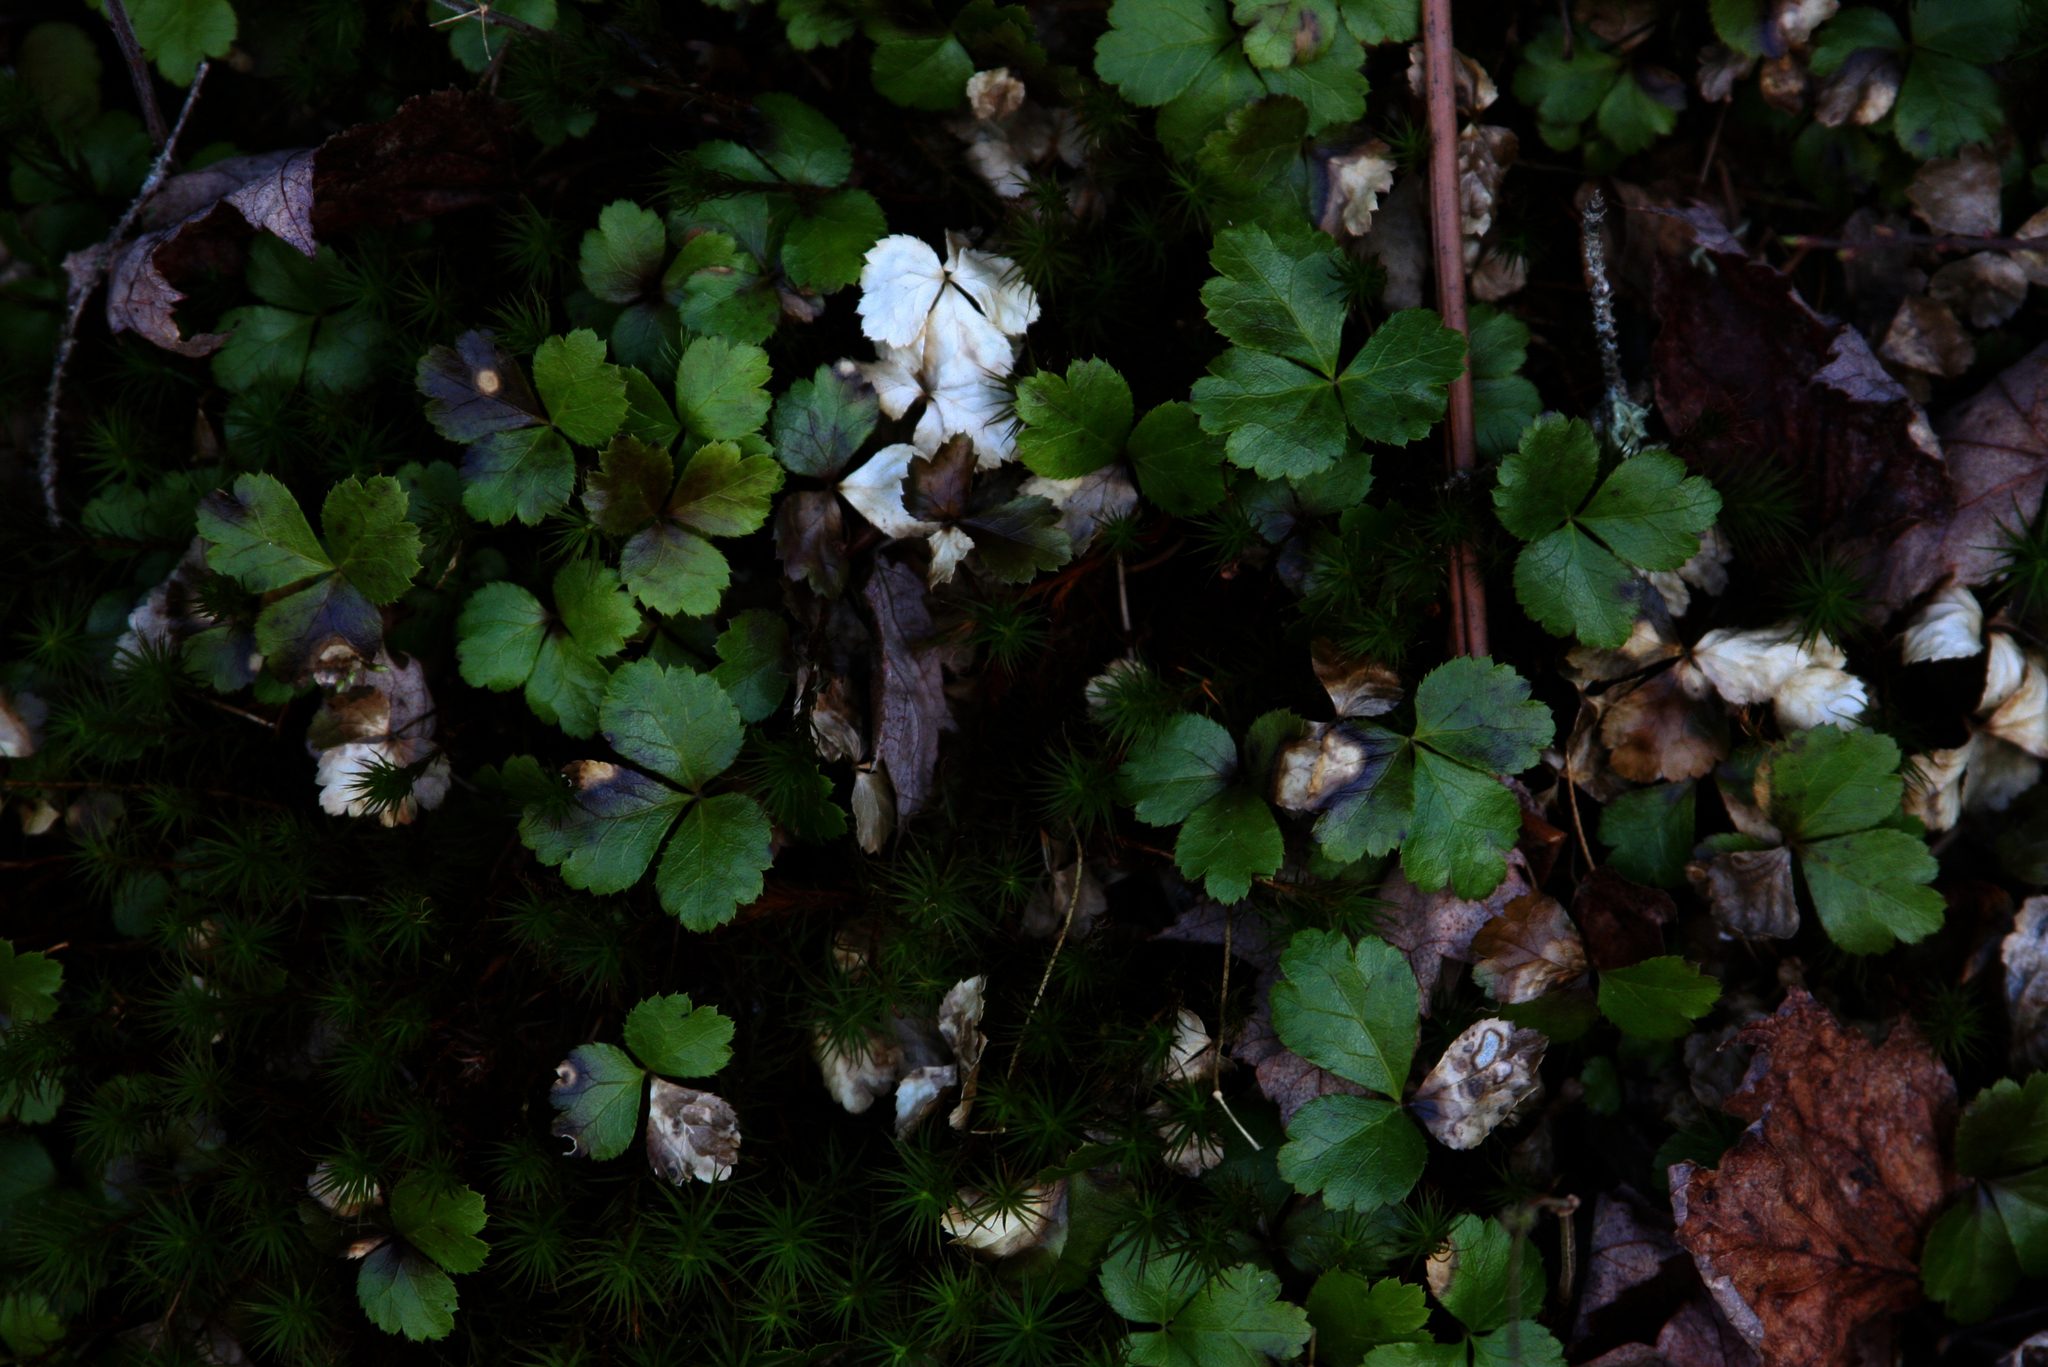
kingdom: Plantae
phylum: Tracheophyta
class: Magnoliopsida
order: Ranunculales
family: Ranunculaceae
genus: Coptis
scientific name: Coptis trifolia
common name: Canker-root
